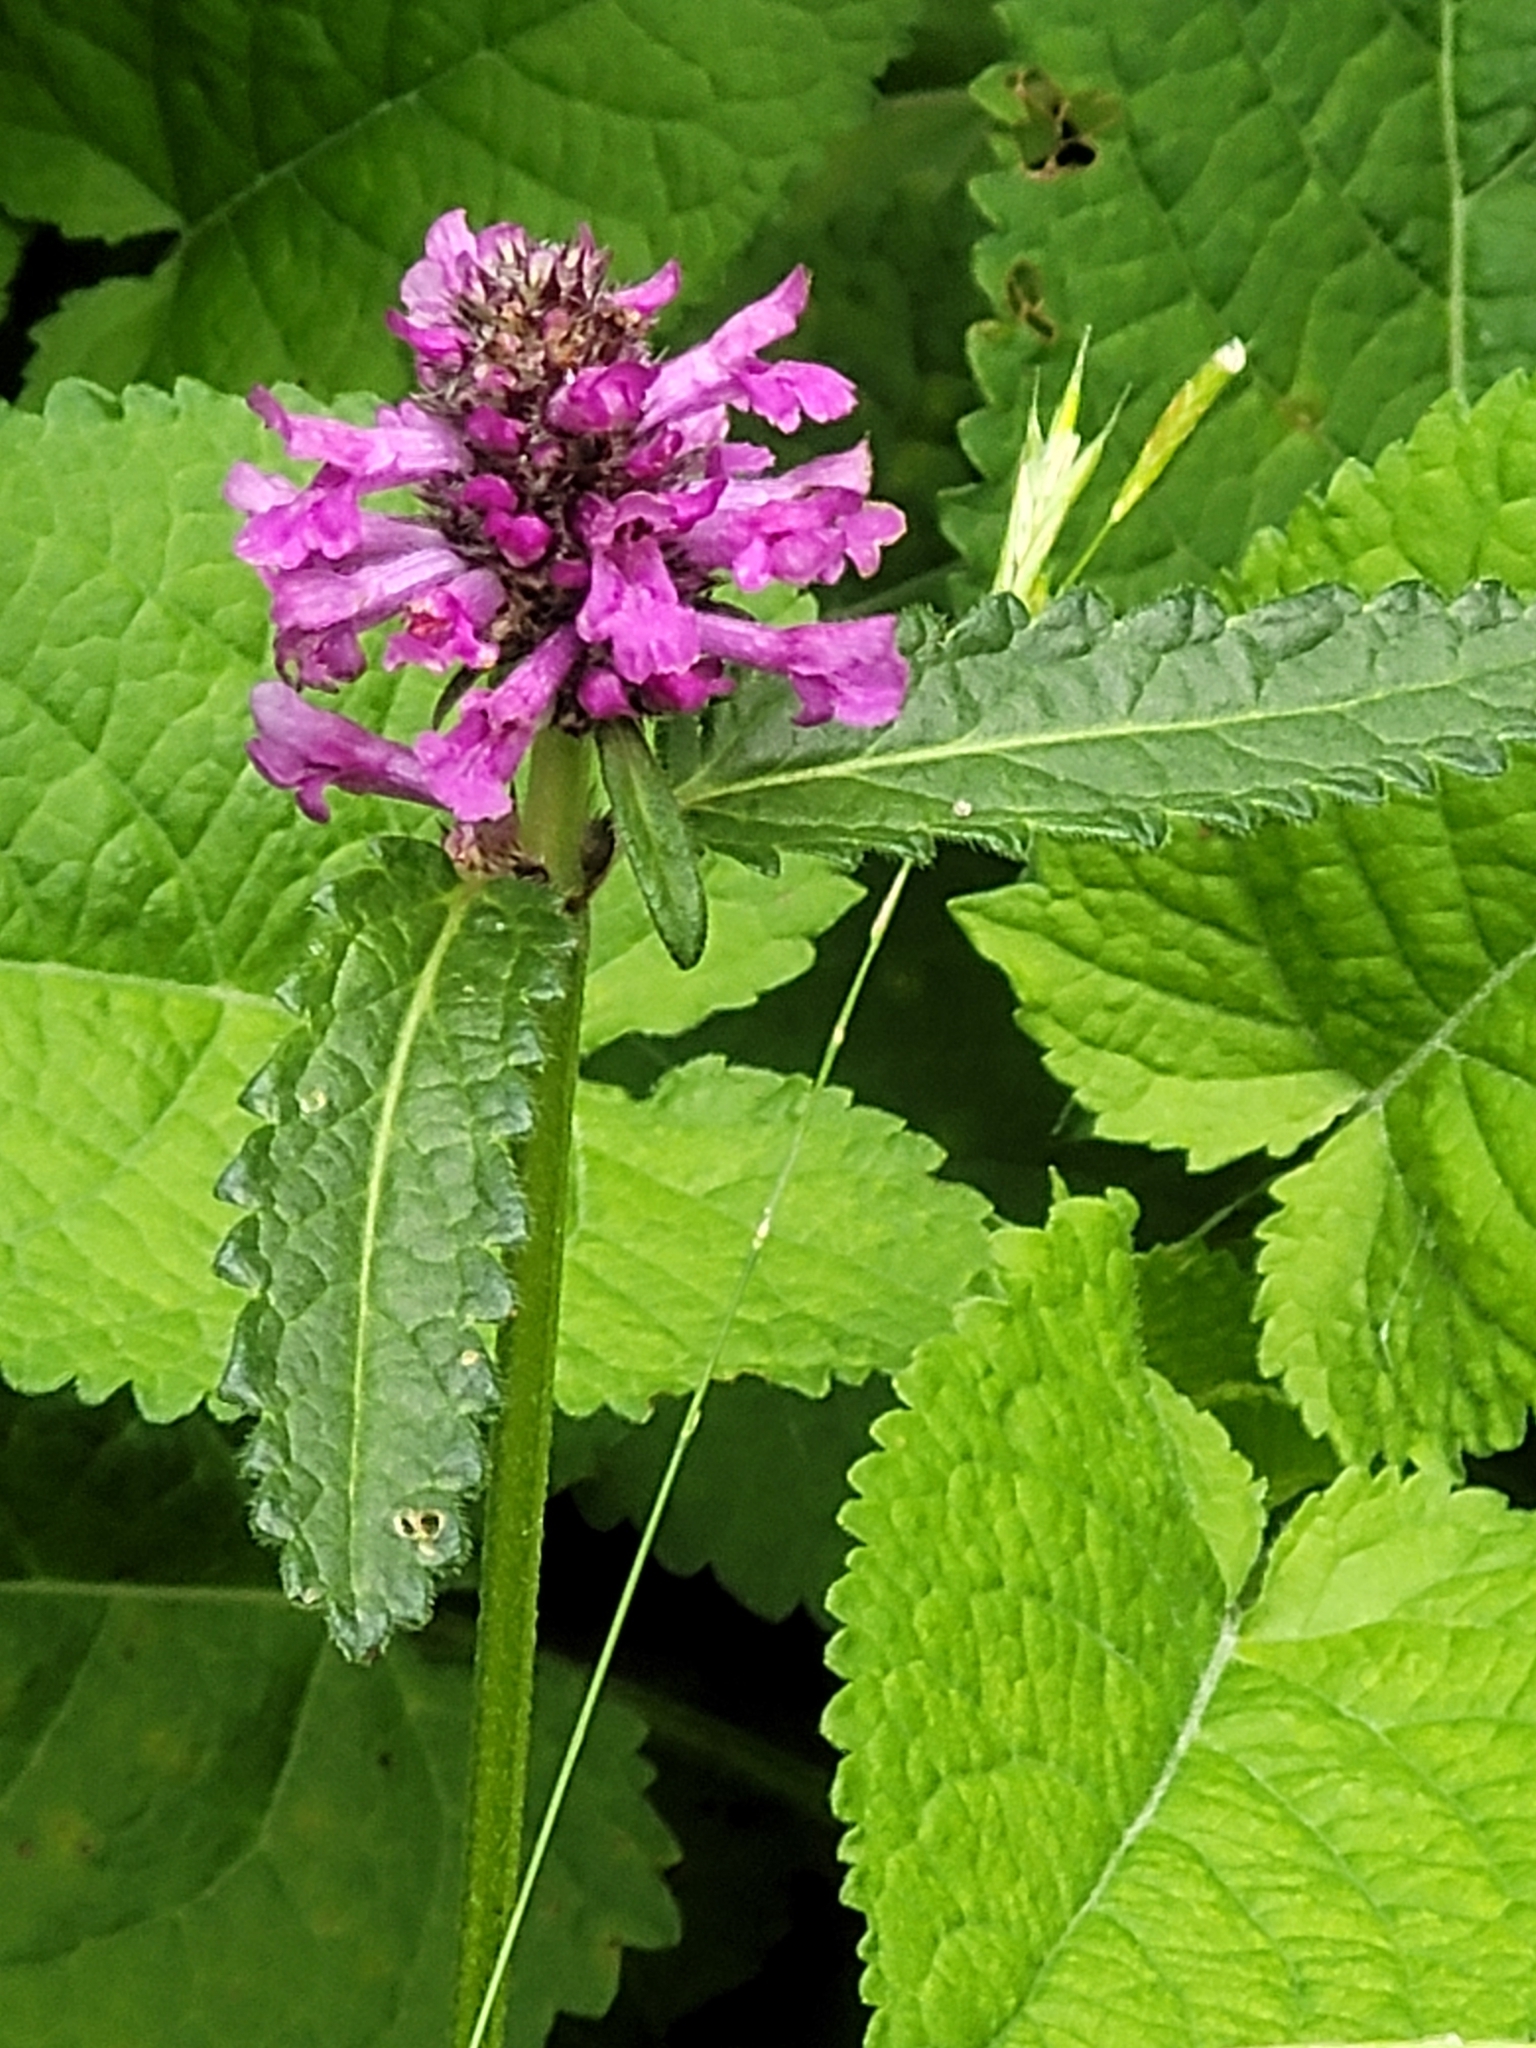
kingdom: Plantae
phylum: Tracheophyta
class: Magnoliopsida
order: Lamiales
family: Lamiaceae
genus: Betonica
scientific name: Betonica officinalis
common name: Bishop's-wort
